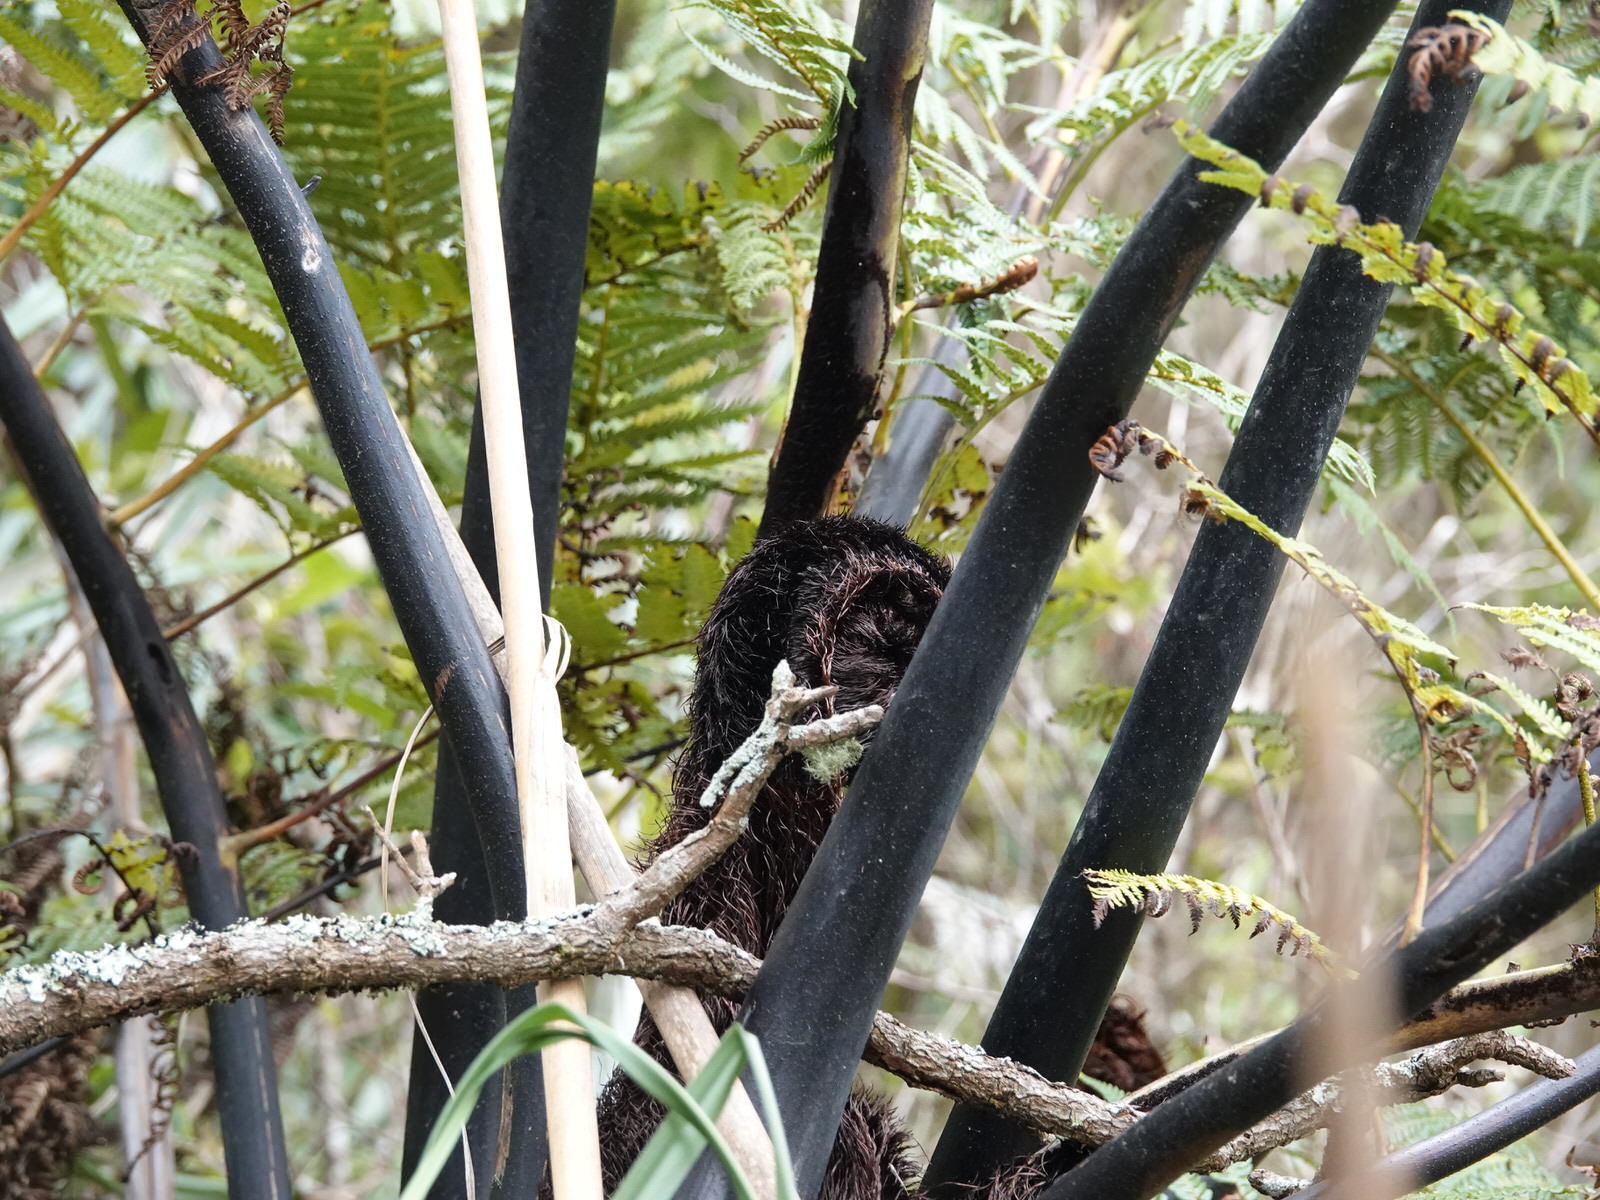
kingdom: Plantae
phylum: Tracheophyta
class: Polypodiopsida
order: Cyatheales
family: Cyatheaceae
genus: Sphaeropteris
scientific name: Sphaeropteris medullaris
